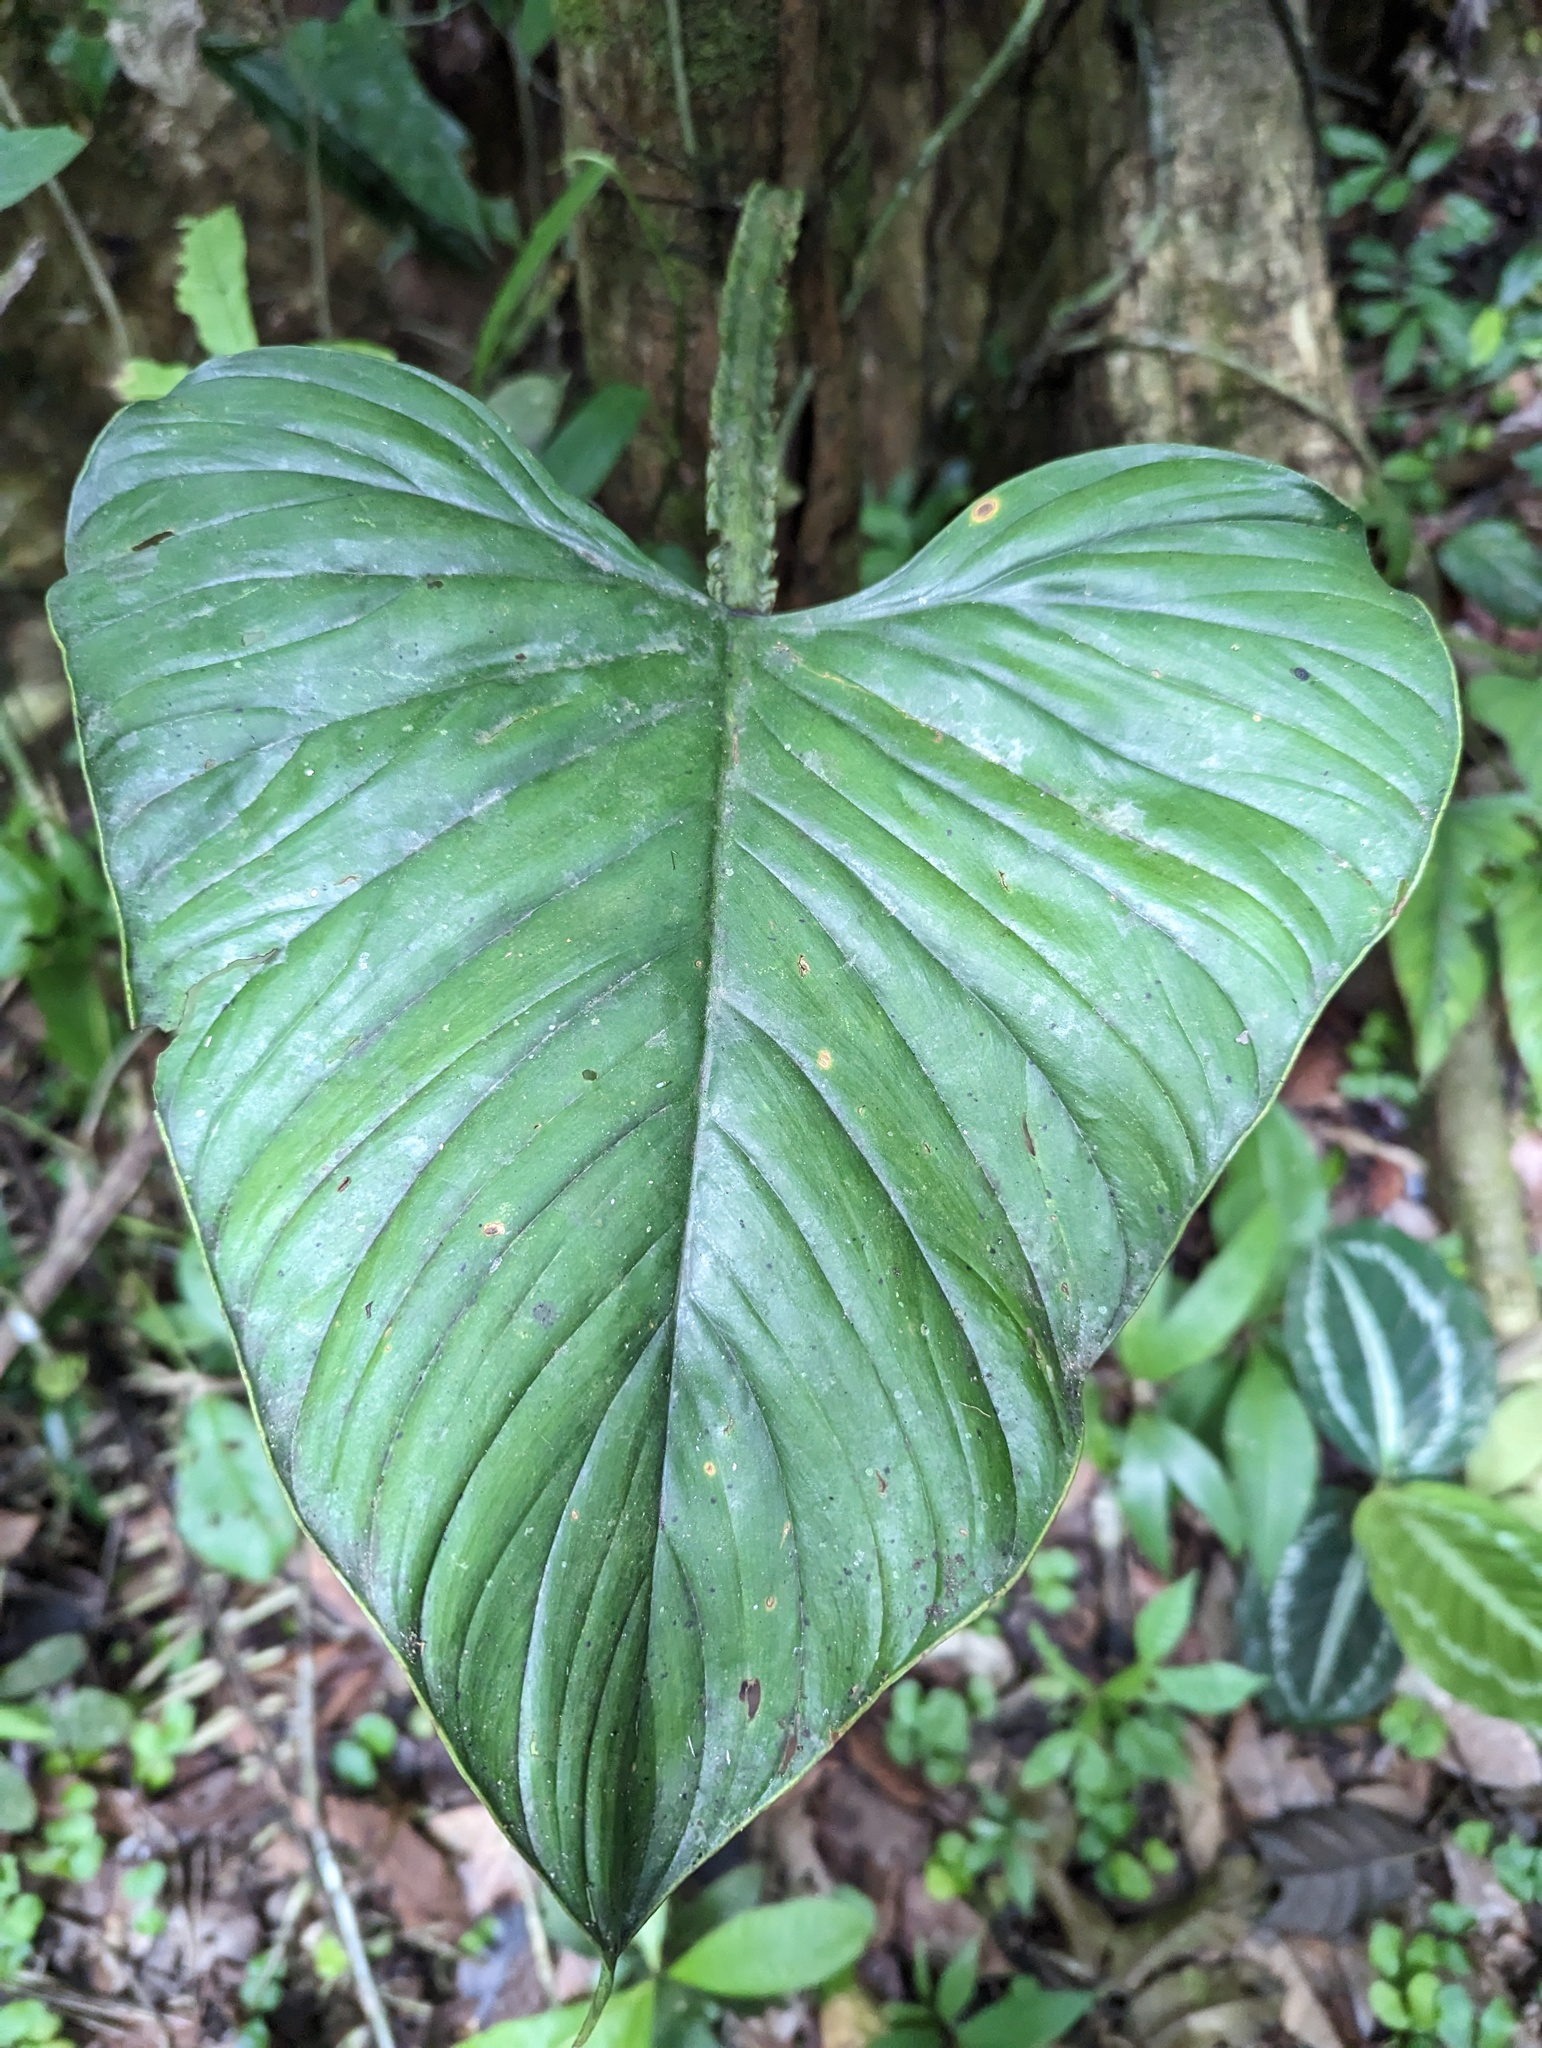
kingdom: Plantae
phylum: Tracheophyta
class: Liliopsida
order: Alismatales
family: Araceae
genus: Philodendron
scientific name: Philodendron ernestii
